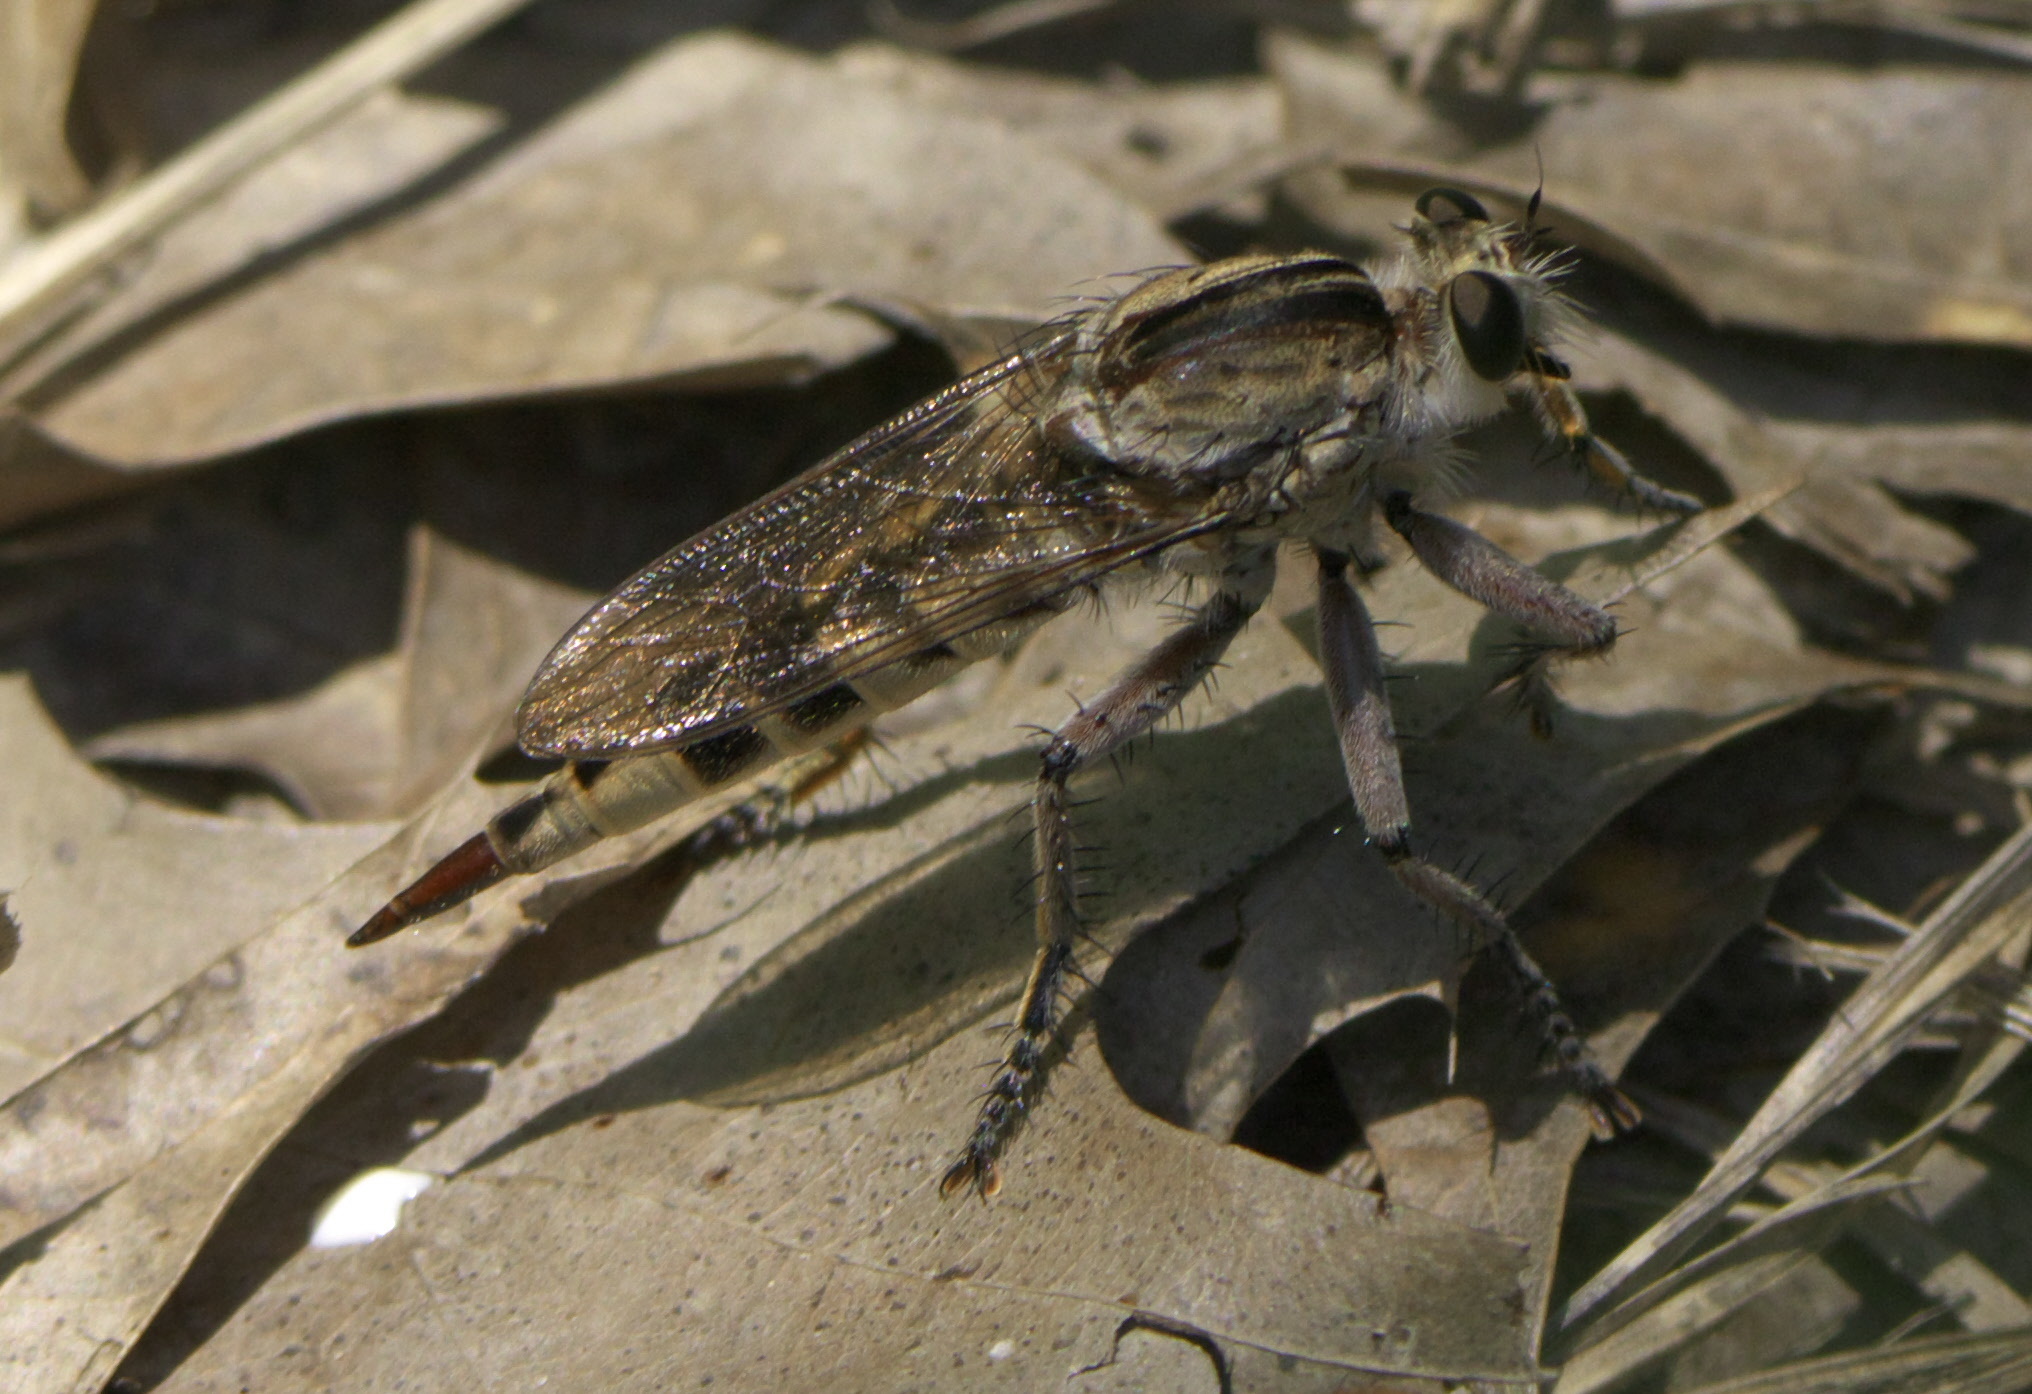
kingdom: Animalia
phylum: Arthropoda
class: Insecta
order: Diptera
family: Asilidae
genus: Triorla
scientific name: Triorla interrupta
